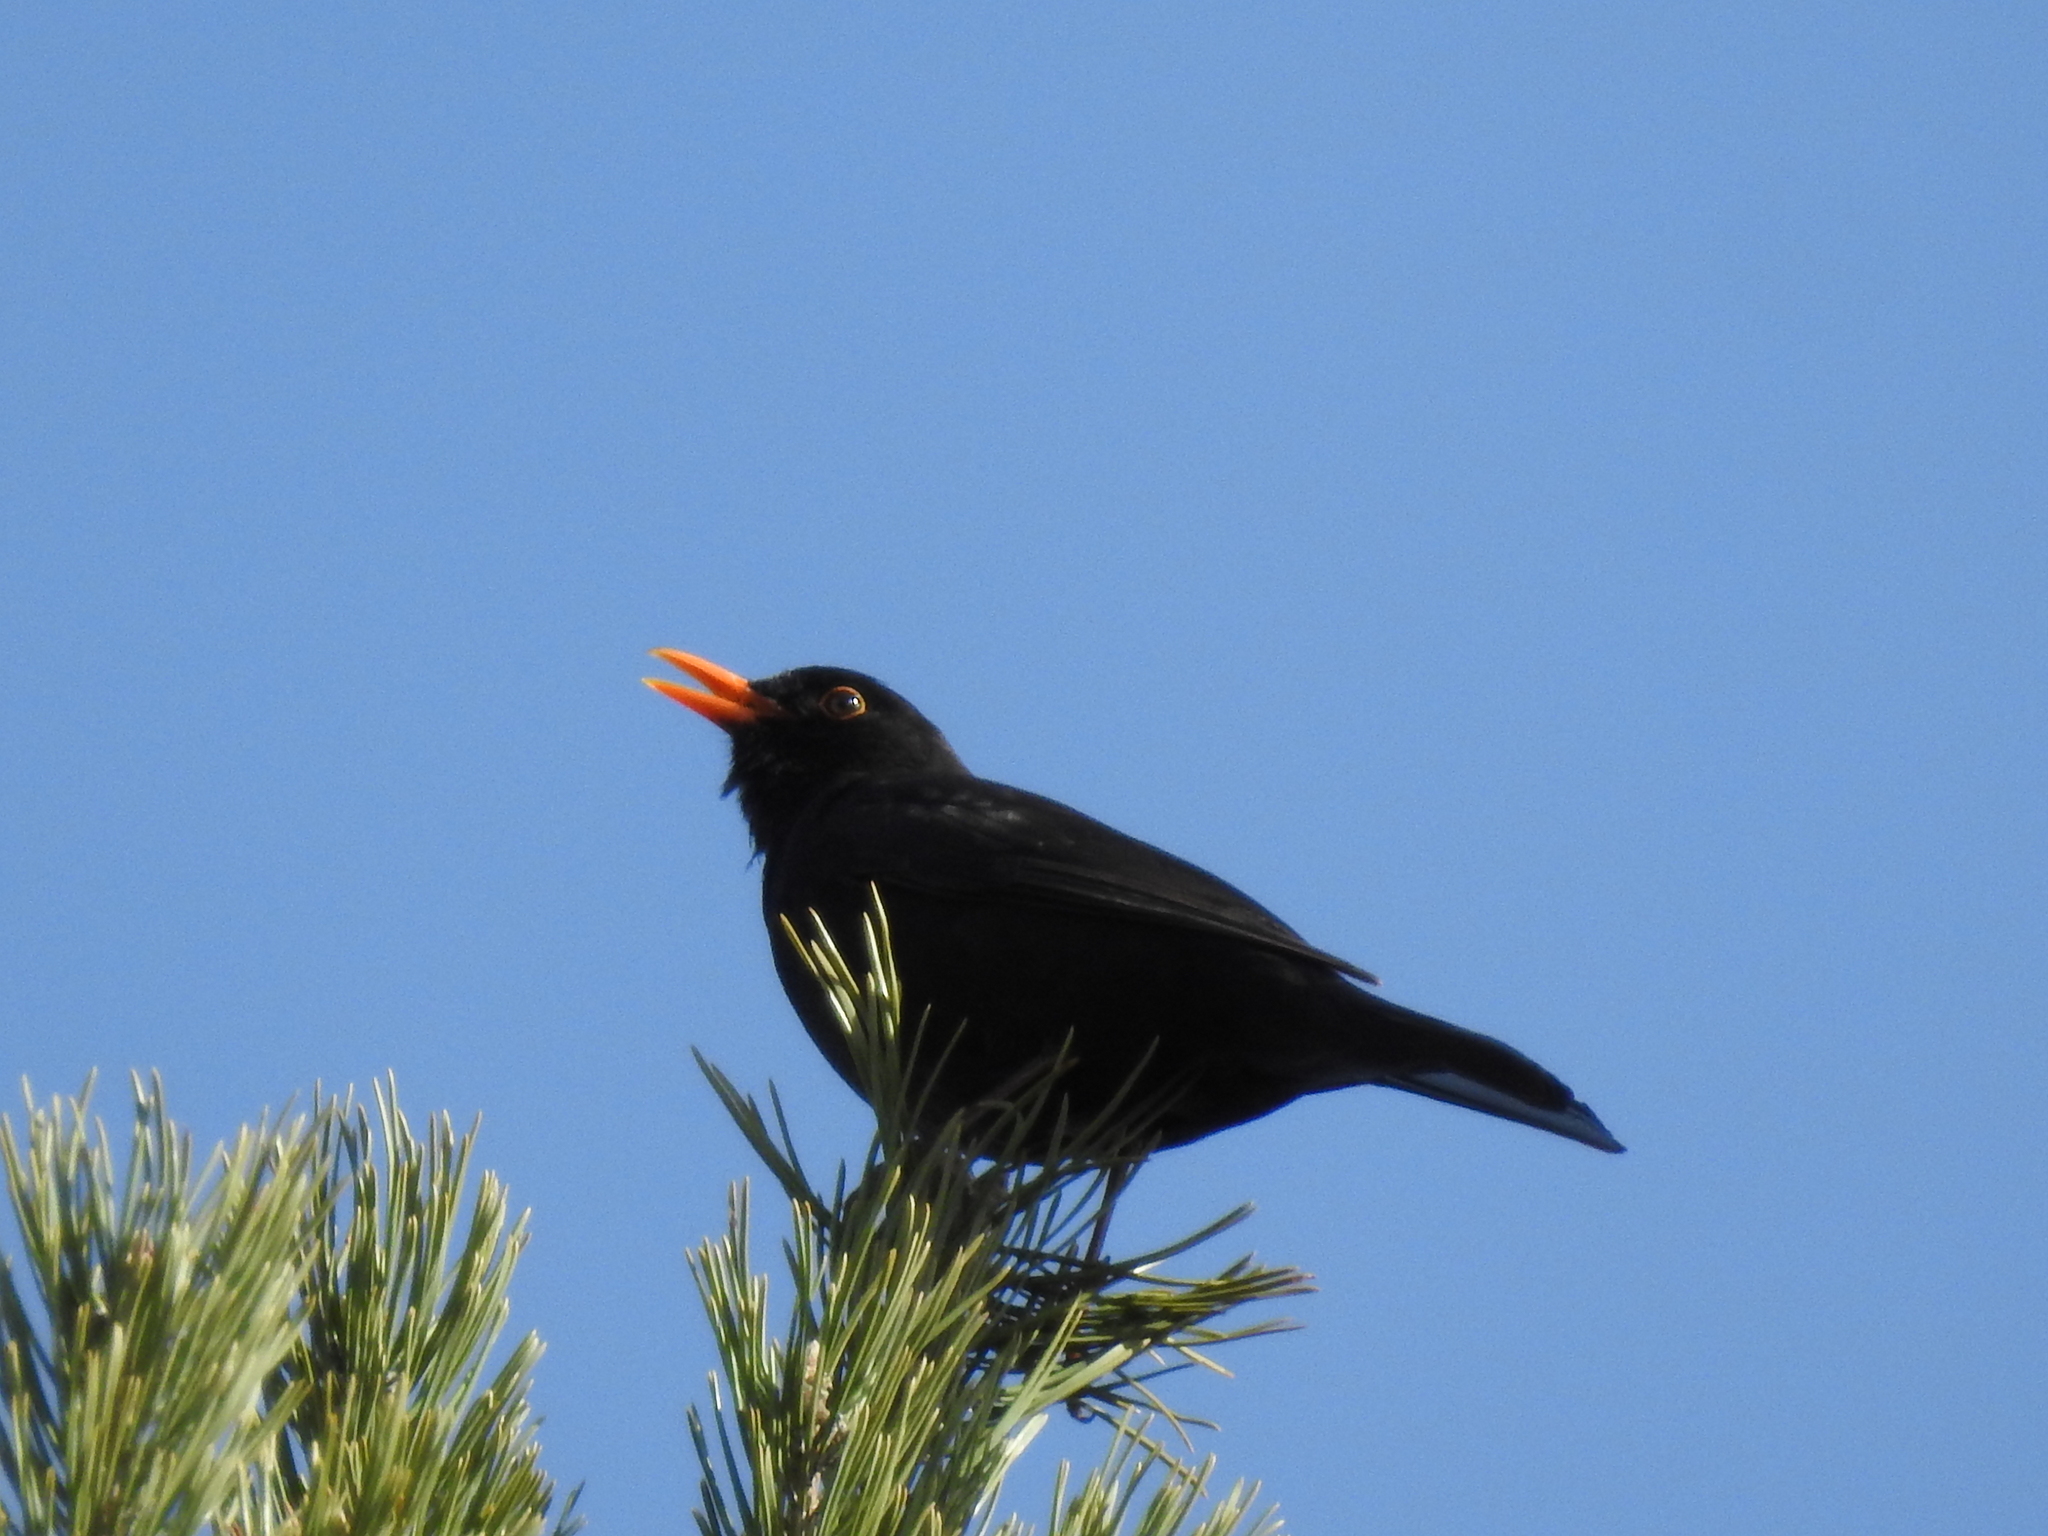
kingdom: Animalia
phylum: Chordata
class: Aves
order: Passeriformes
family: Turdidae
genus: Turdus
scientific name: Turdus merula
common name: Common blackbird
